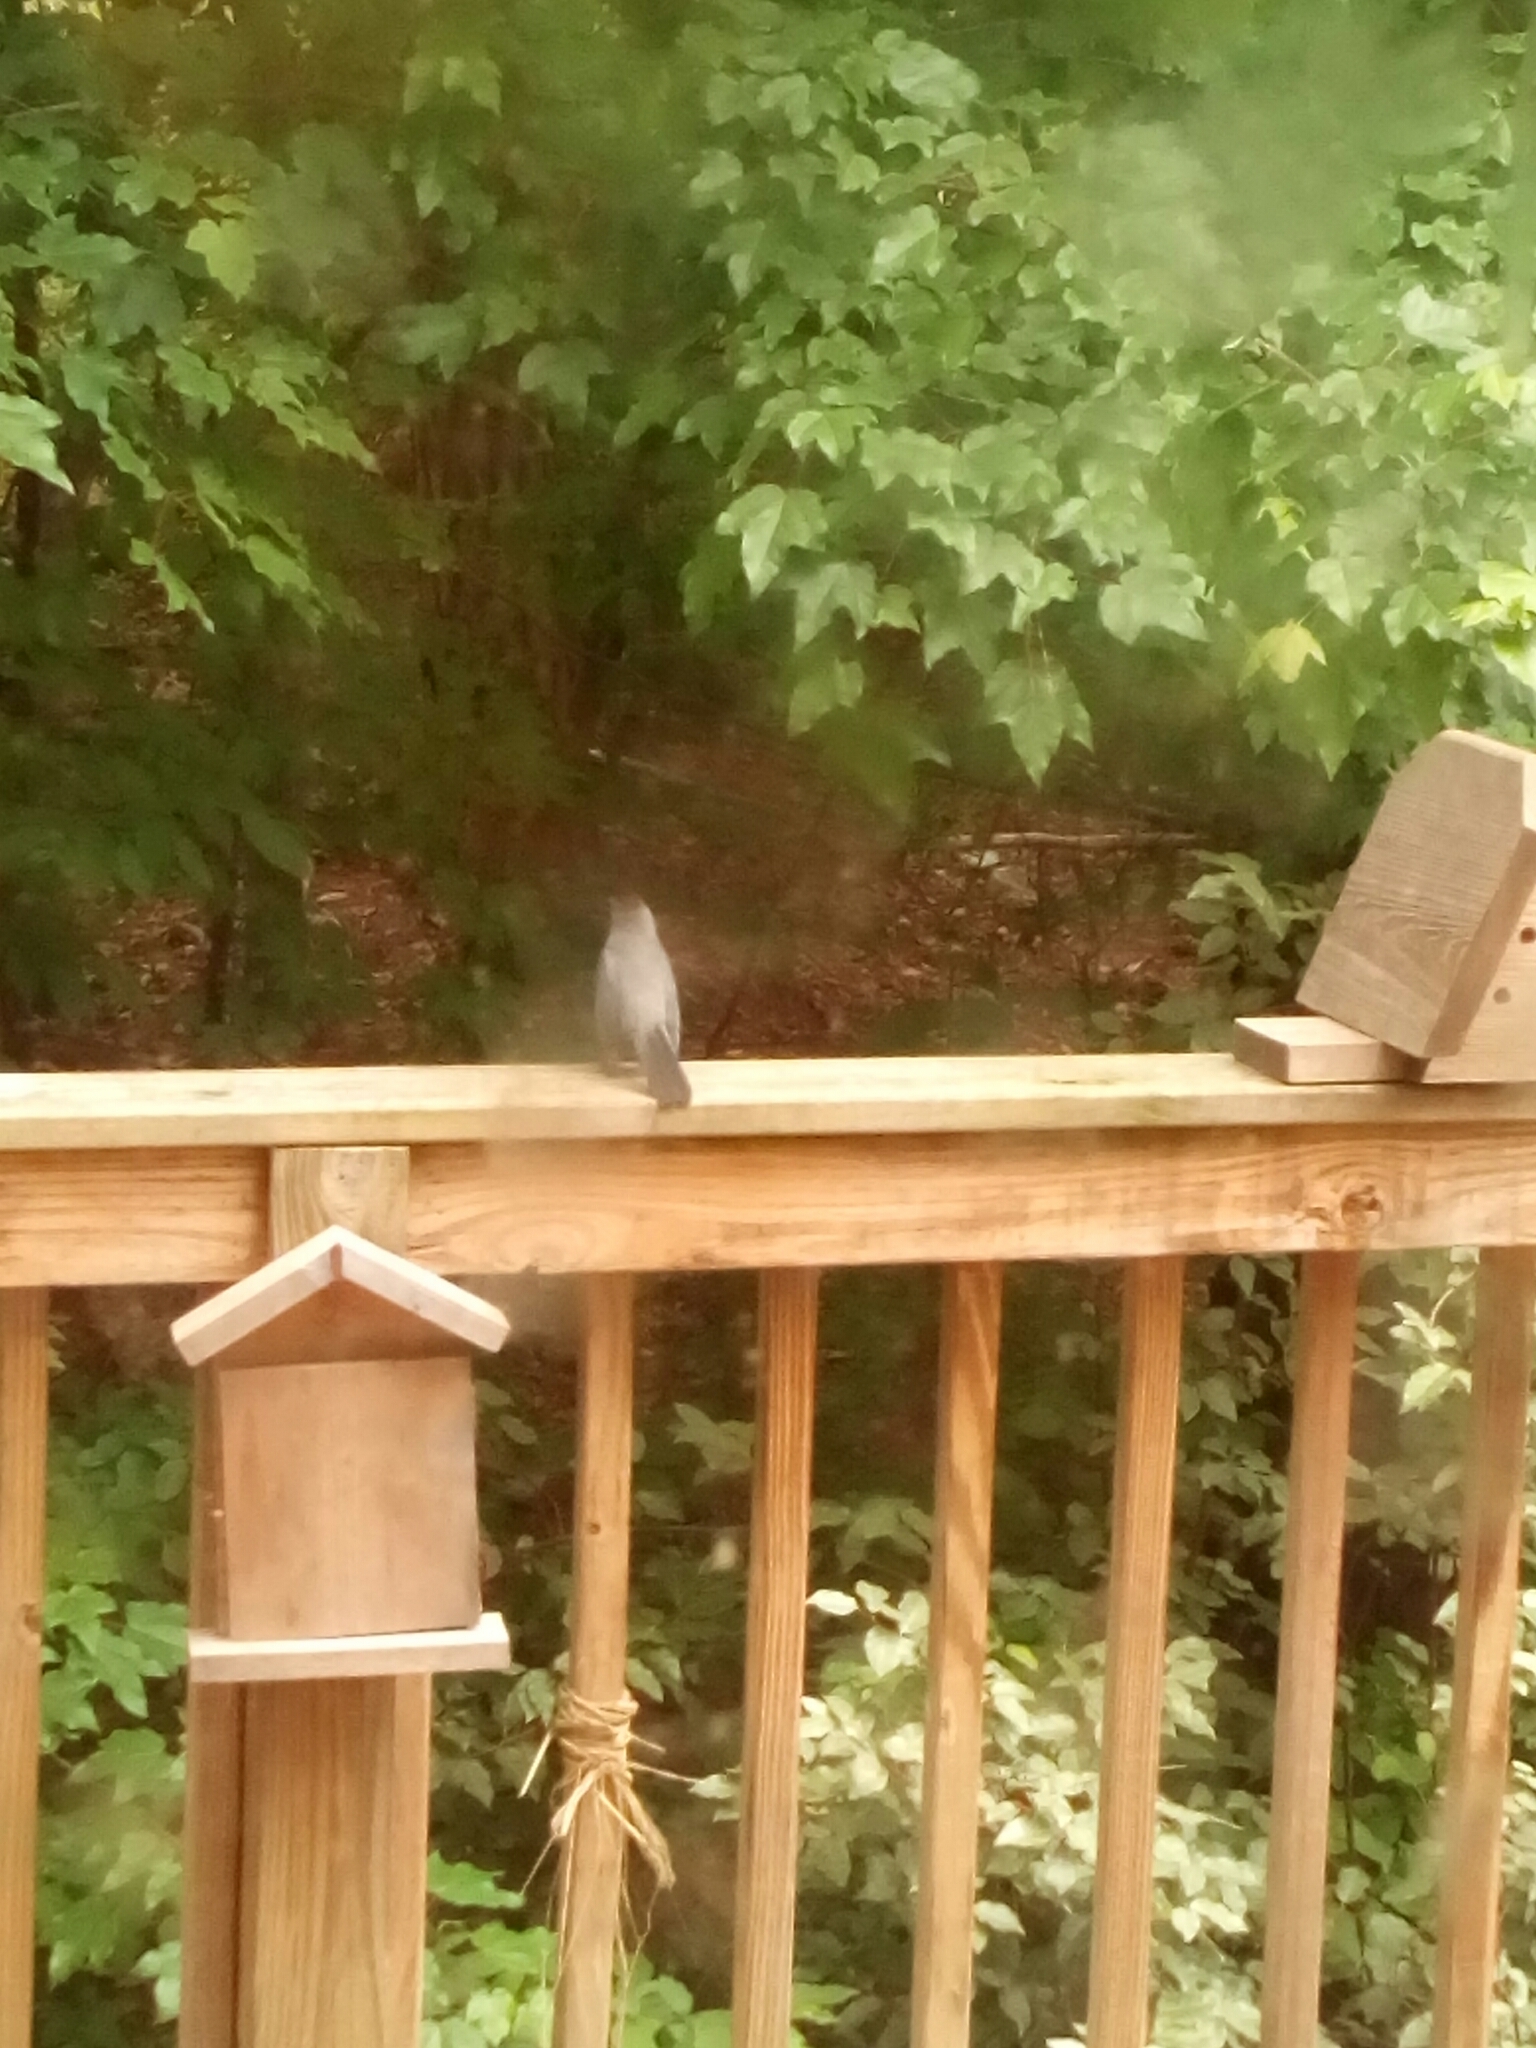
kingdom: Animalia
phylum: Chordata
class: Aves
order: Passeriformes
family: Mimidae
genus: Dumetella
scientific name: Dumetella carolinensis
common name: Gray catbird
